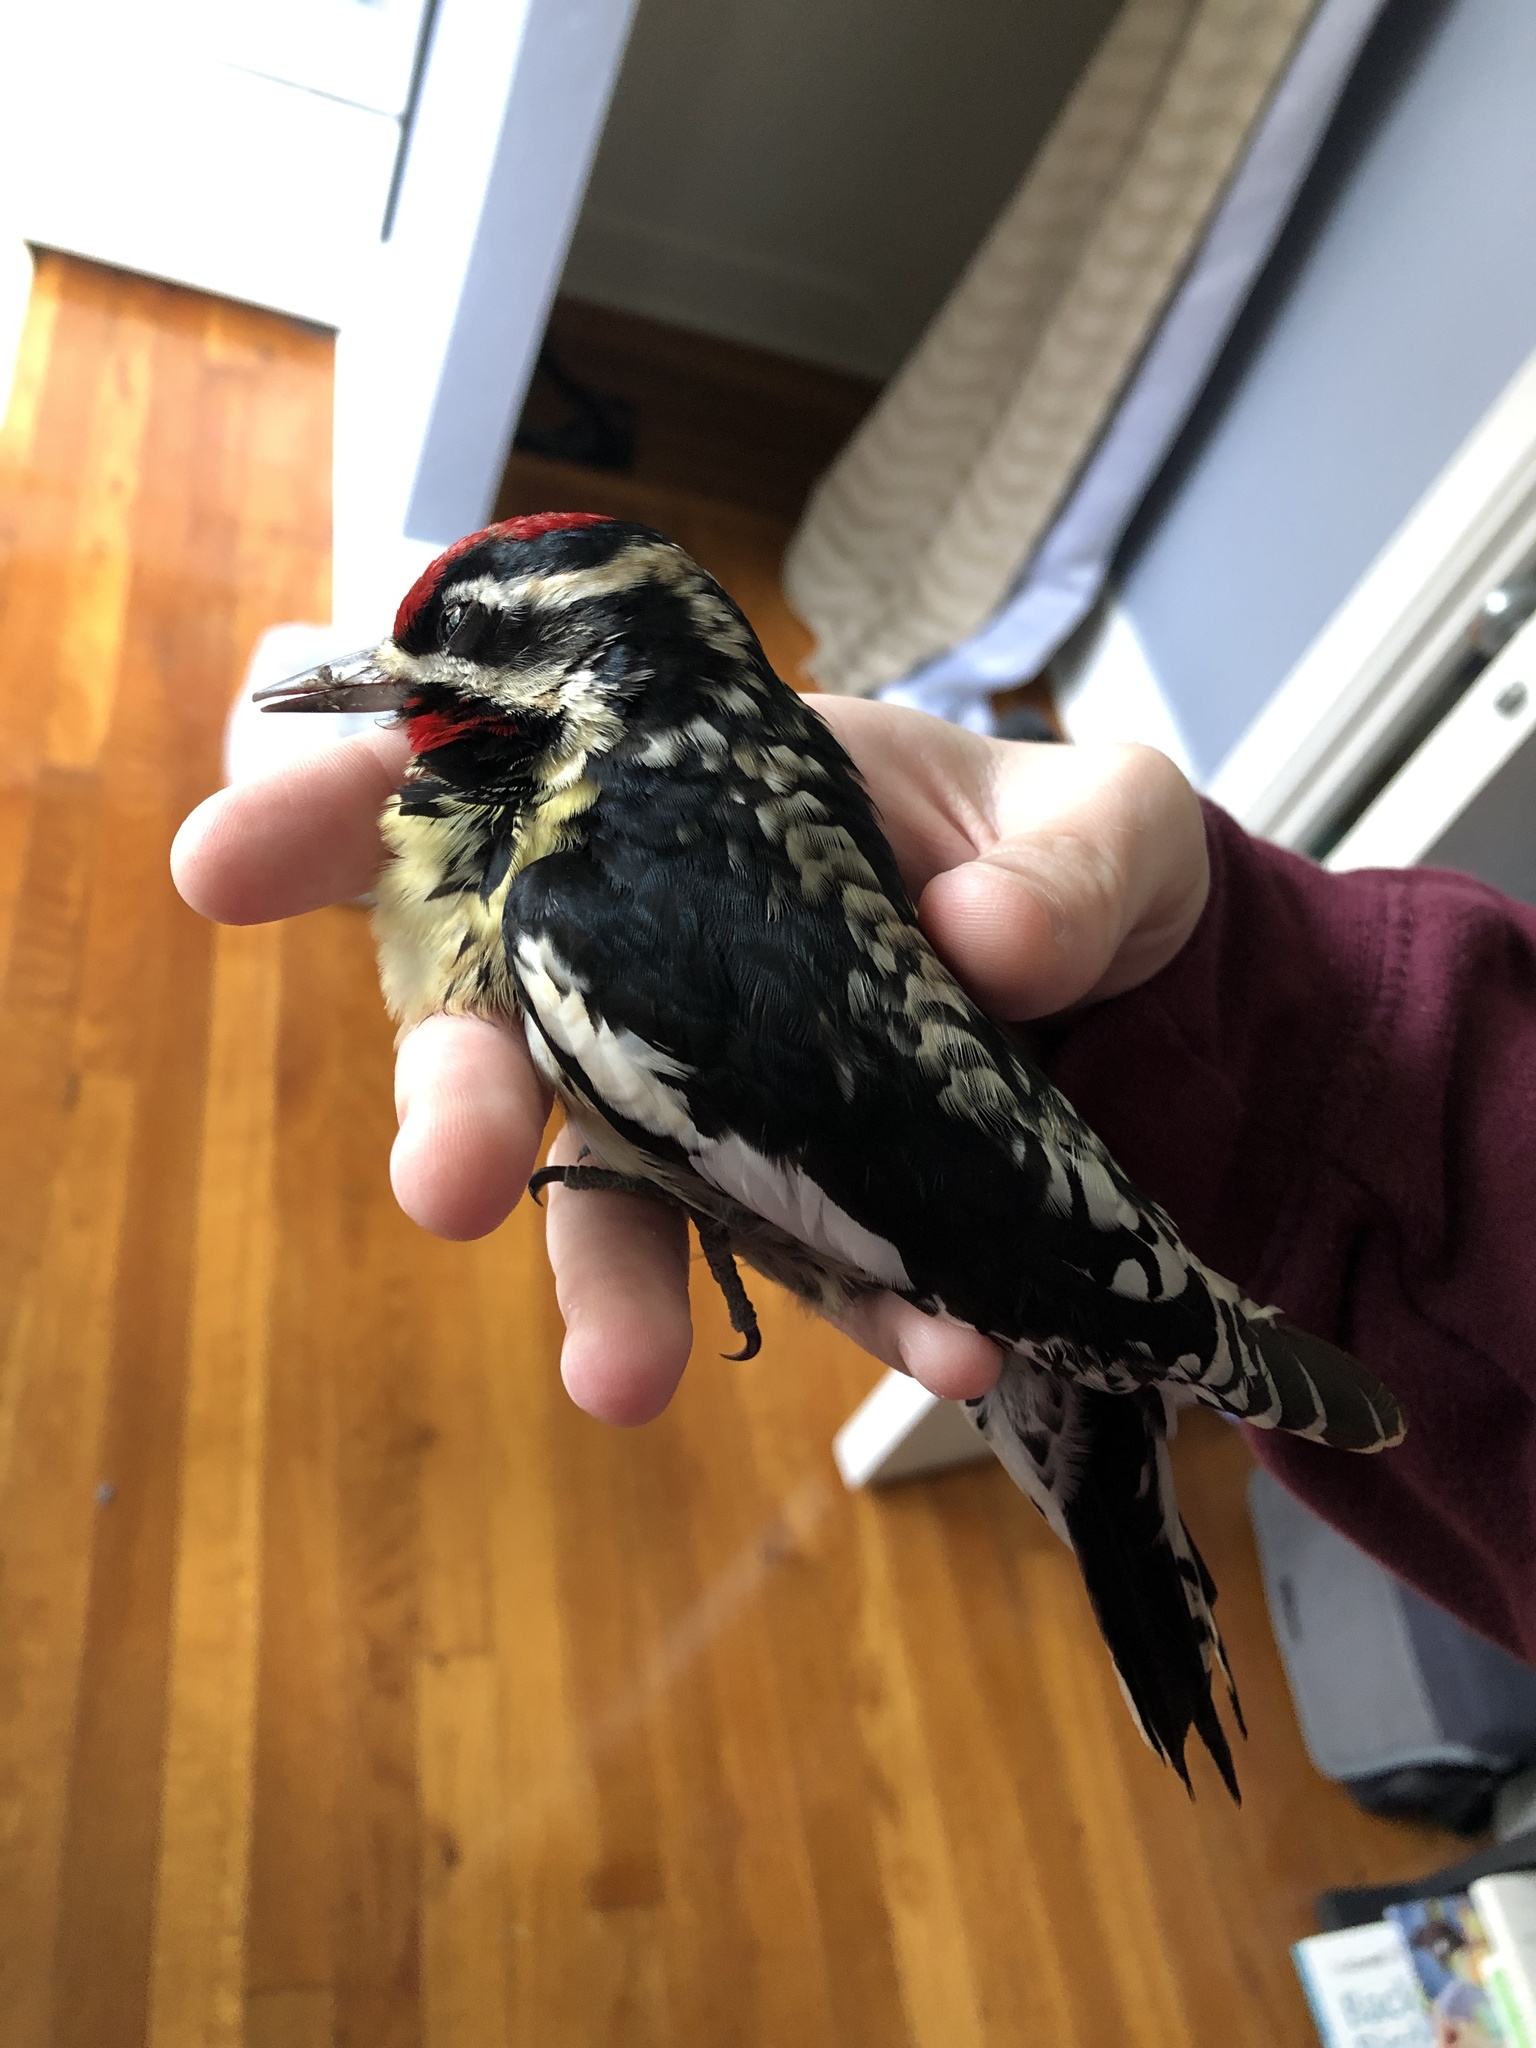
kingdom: Animalia
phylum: Chordata
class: Aves
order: Piciformes
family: Picidae
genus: Sphyrapicus
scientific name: Sphyrapicus varius
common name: Yellow-bellied sapsucker
